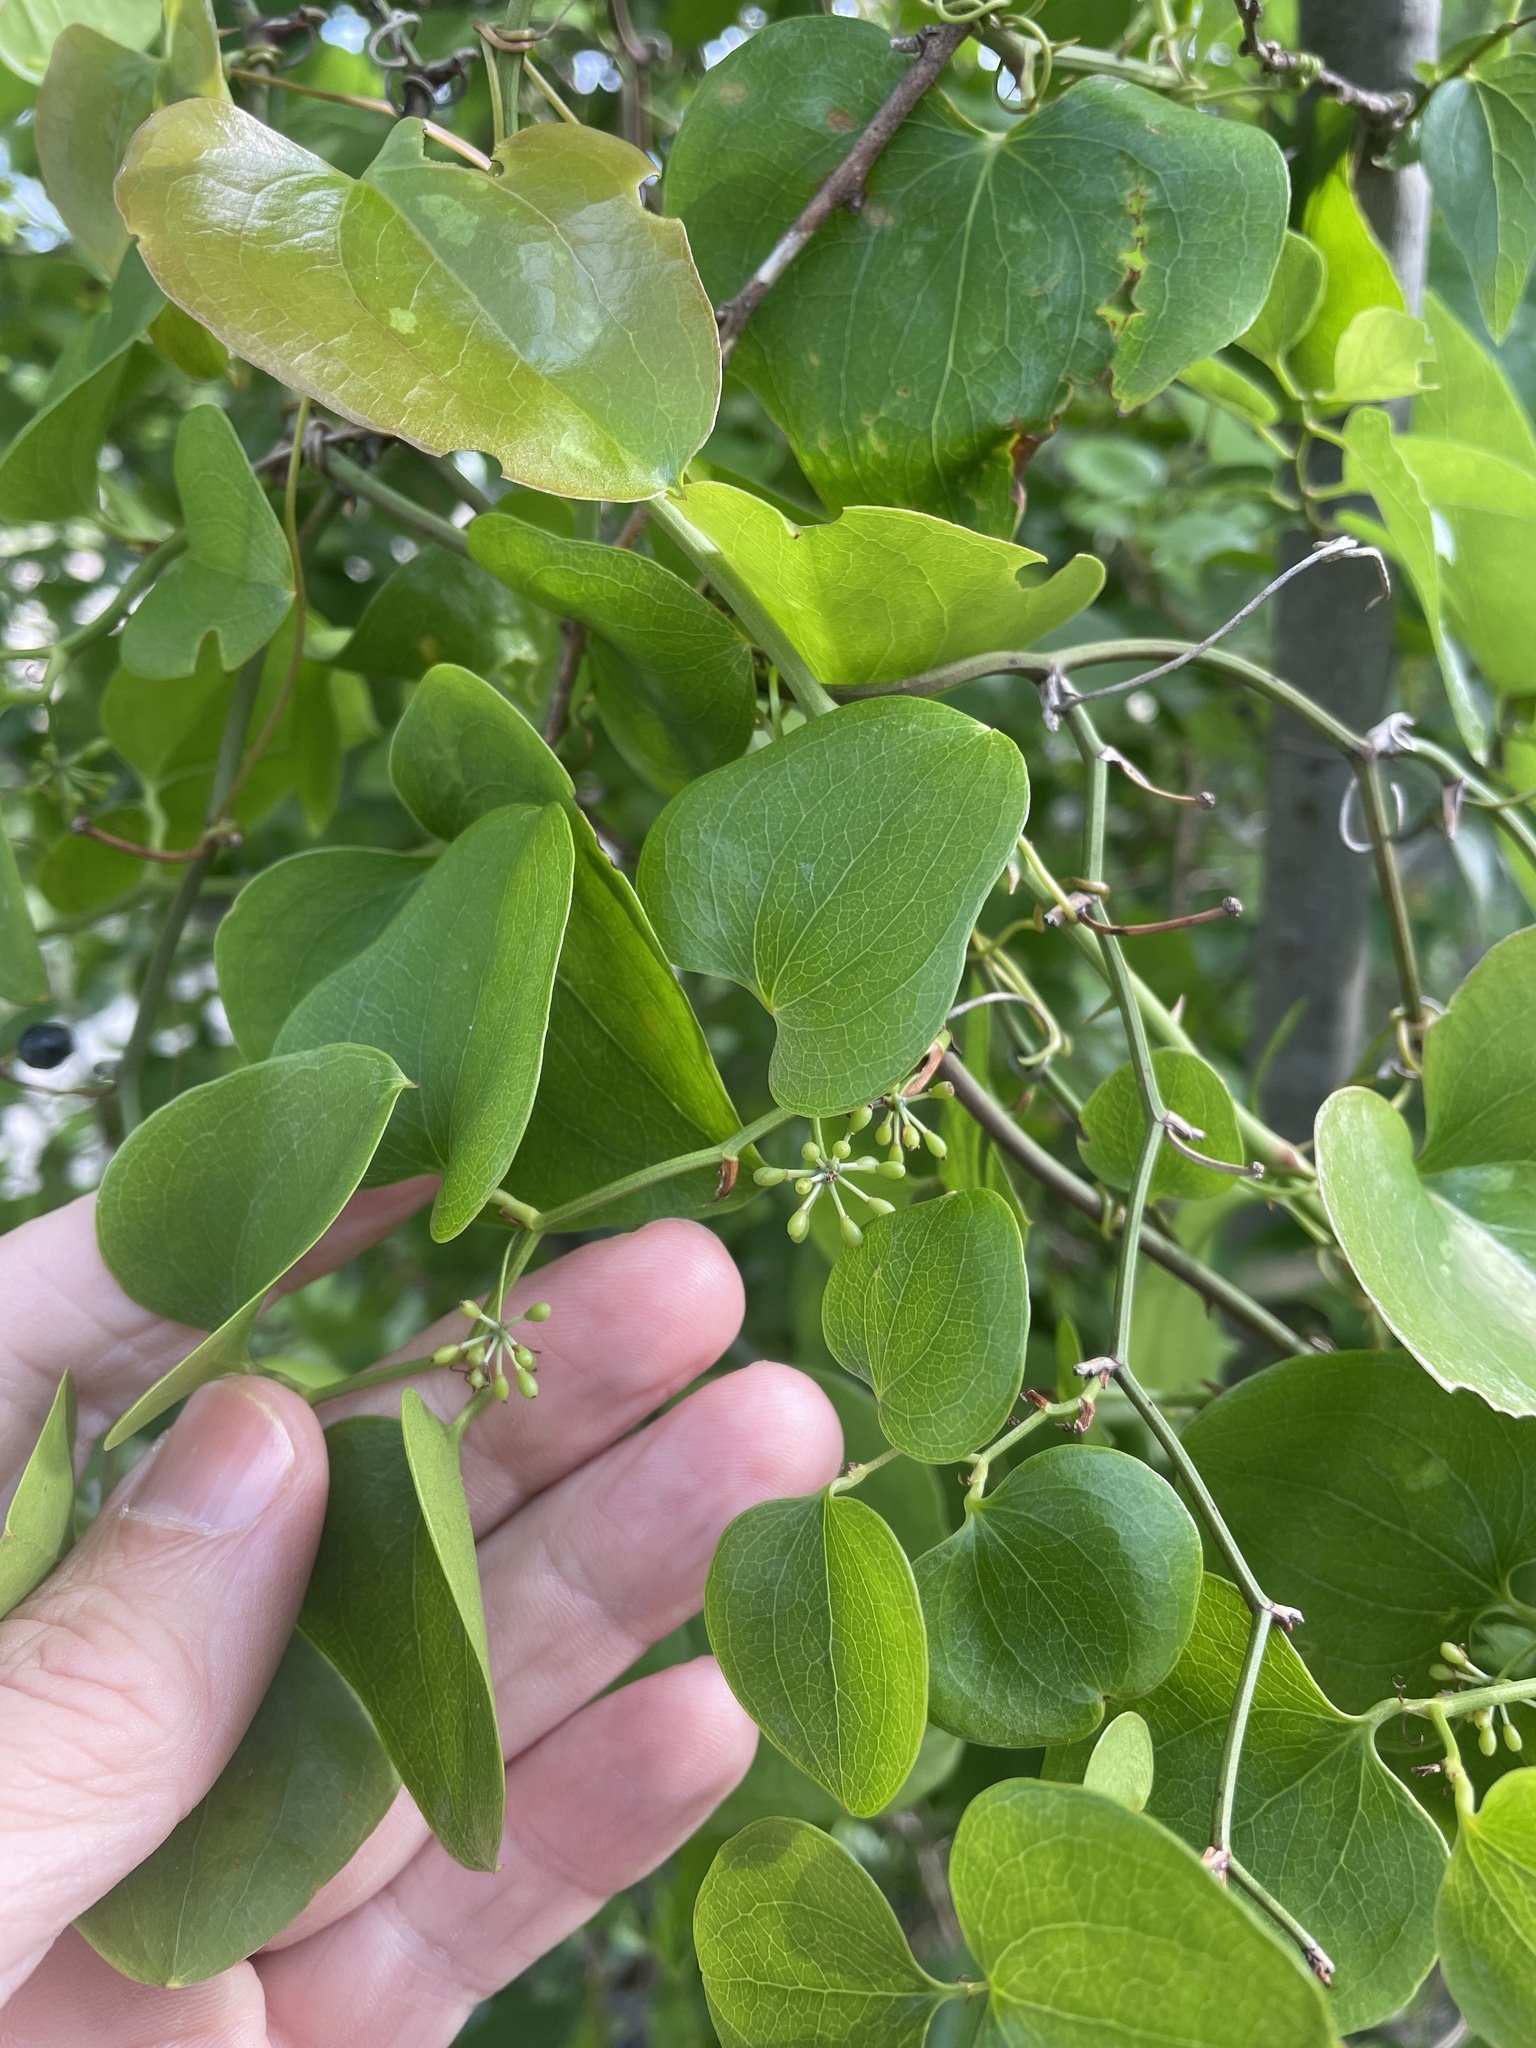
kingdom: Plantae
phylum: Tracheophyta
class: Liliopsida
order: Liliales
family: Smilacaceae
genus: Smilax
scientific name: Smilax bona-nox
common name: Catbrier
